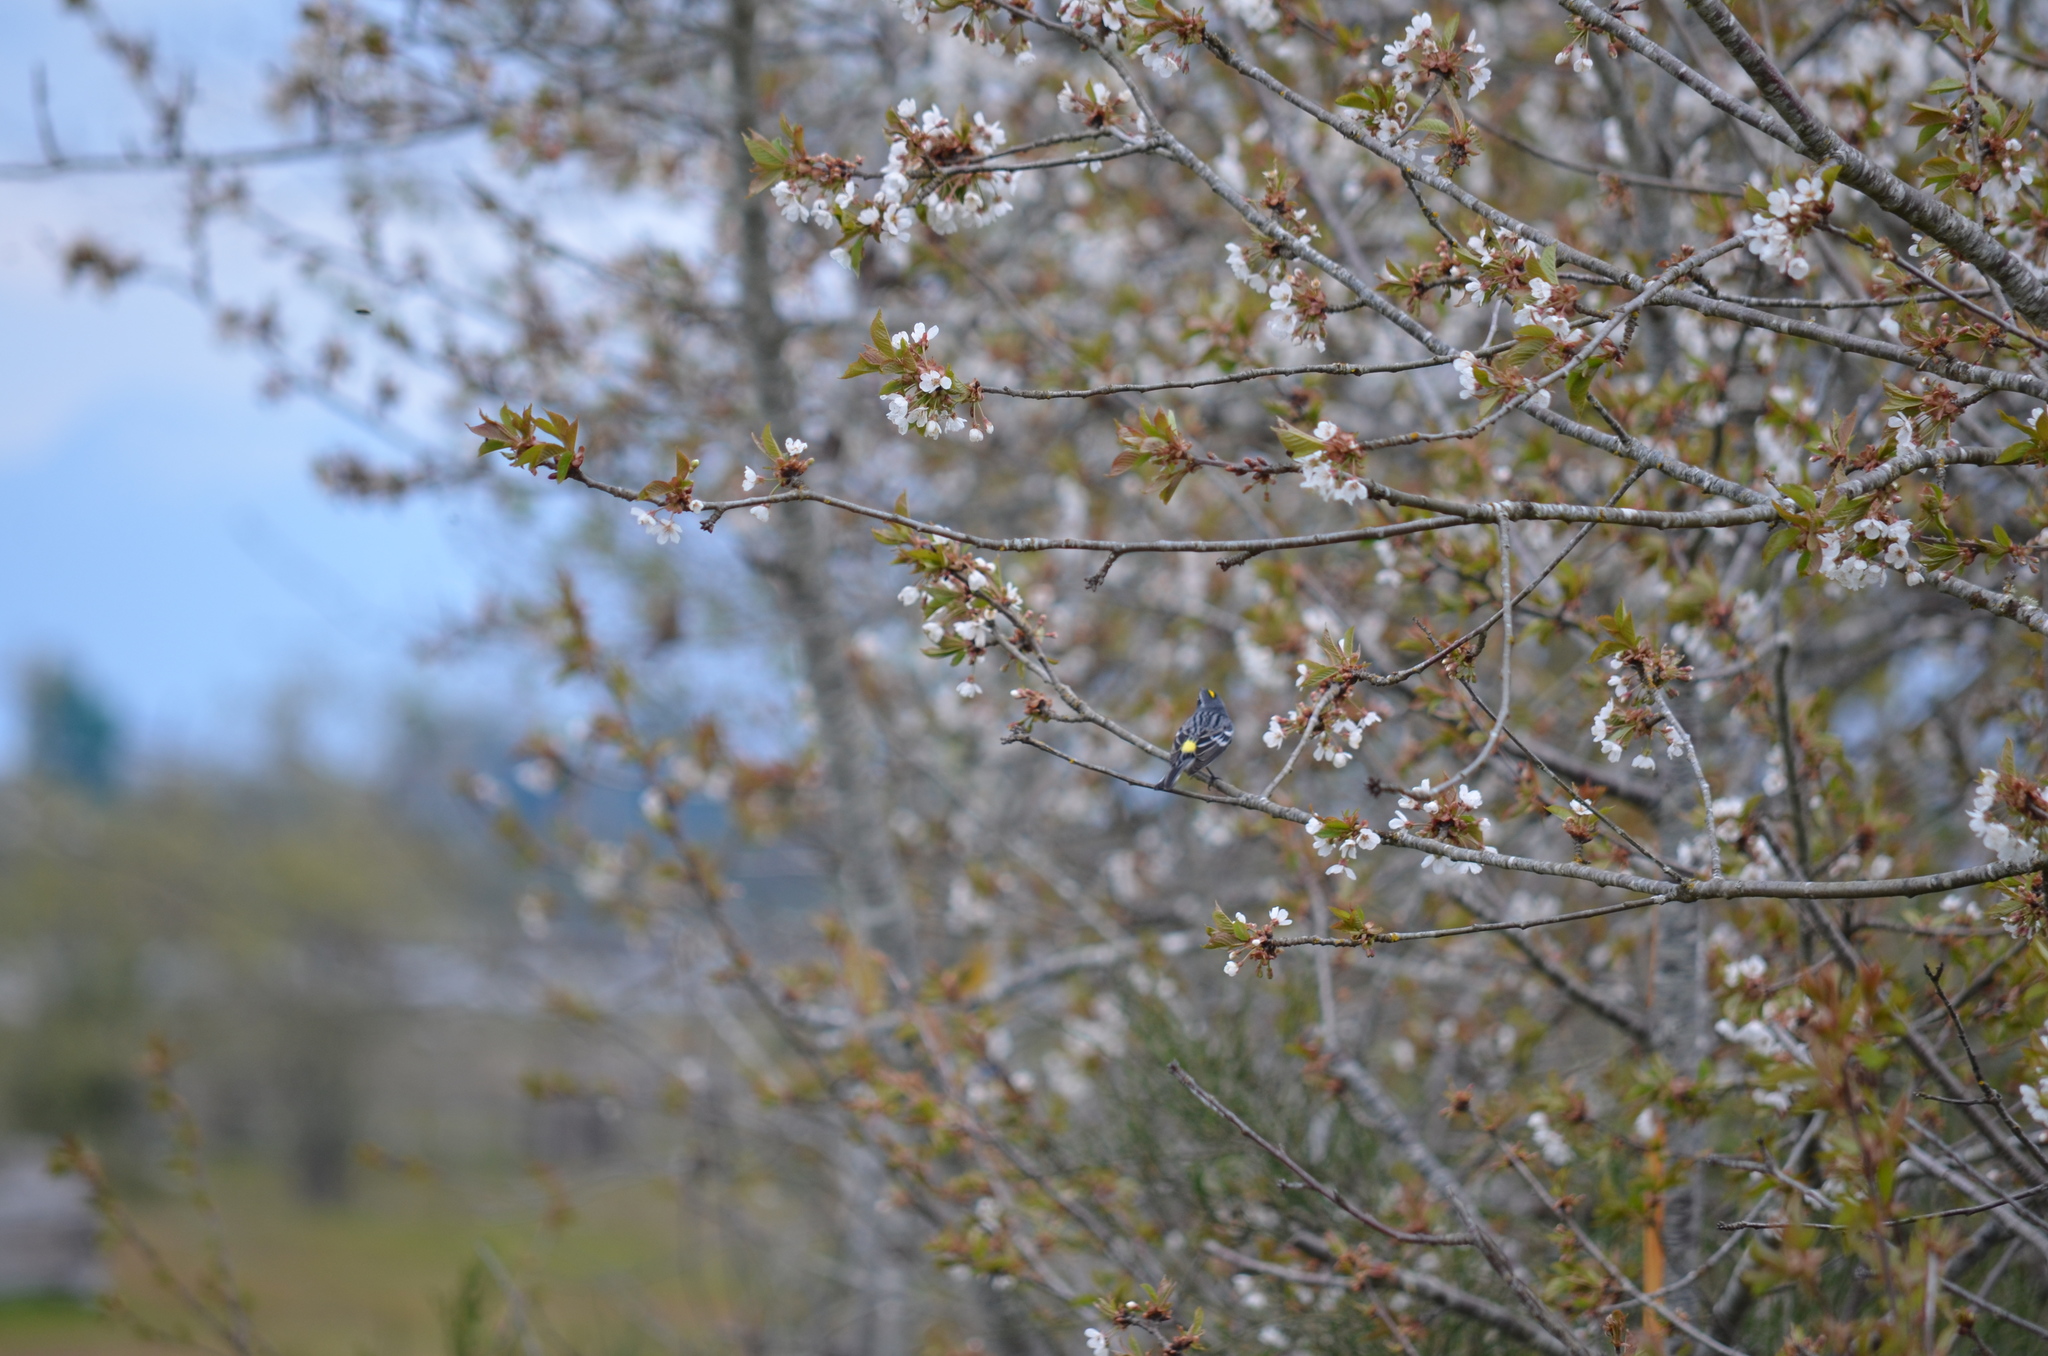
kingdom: Animalia
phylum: Chordata
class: Aves
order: Passeriformes
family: Parulidae
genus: Setophaga
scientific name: Setophaga coronata
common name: Myrtle warbler
